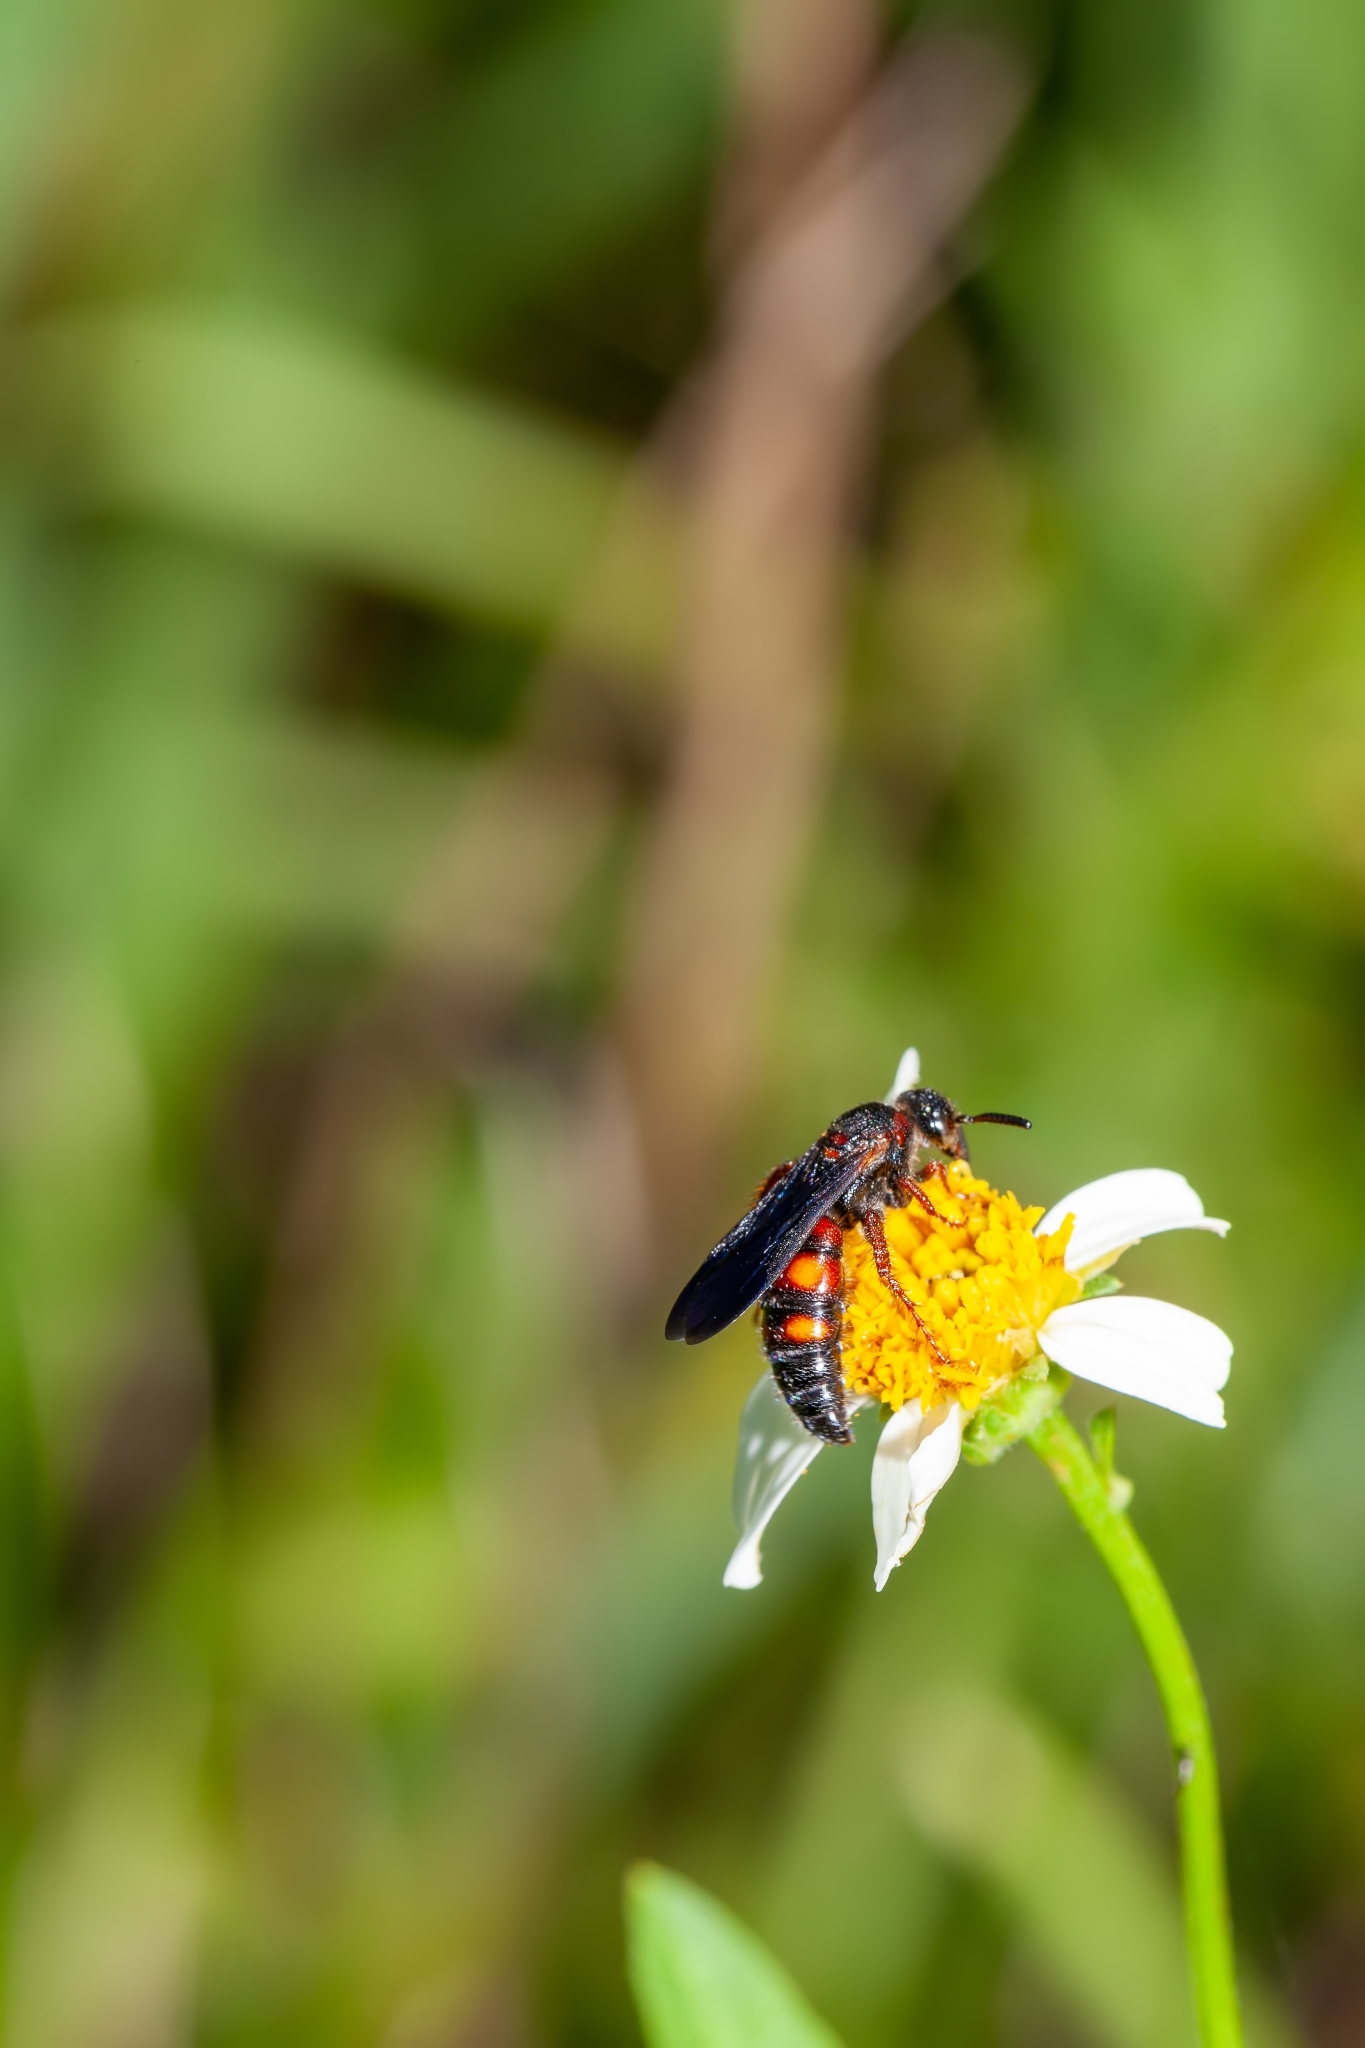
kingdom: Animalia
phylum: Arthropoda
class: Insecta
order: Hymenoptera
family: Scoliidae
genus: Scolia
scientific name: Scolia nobilitata
